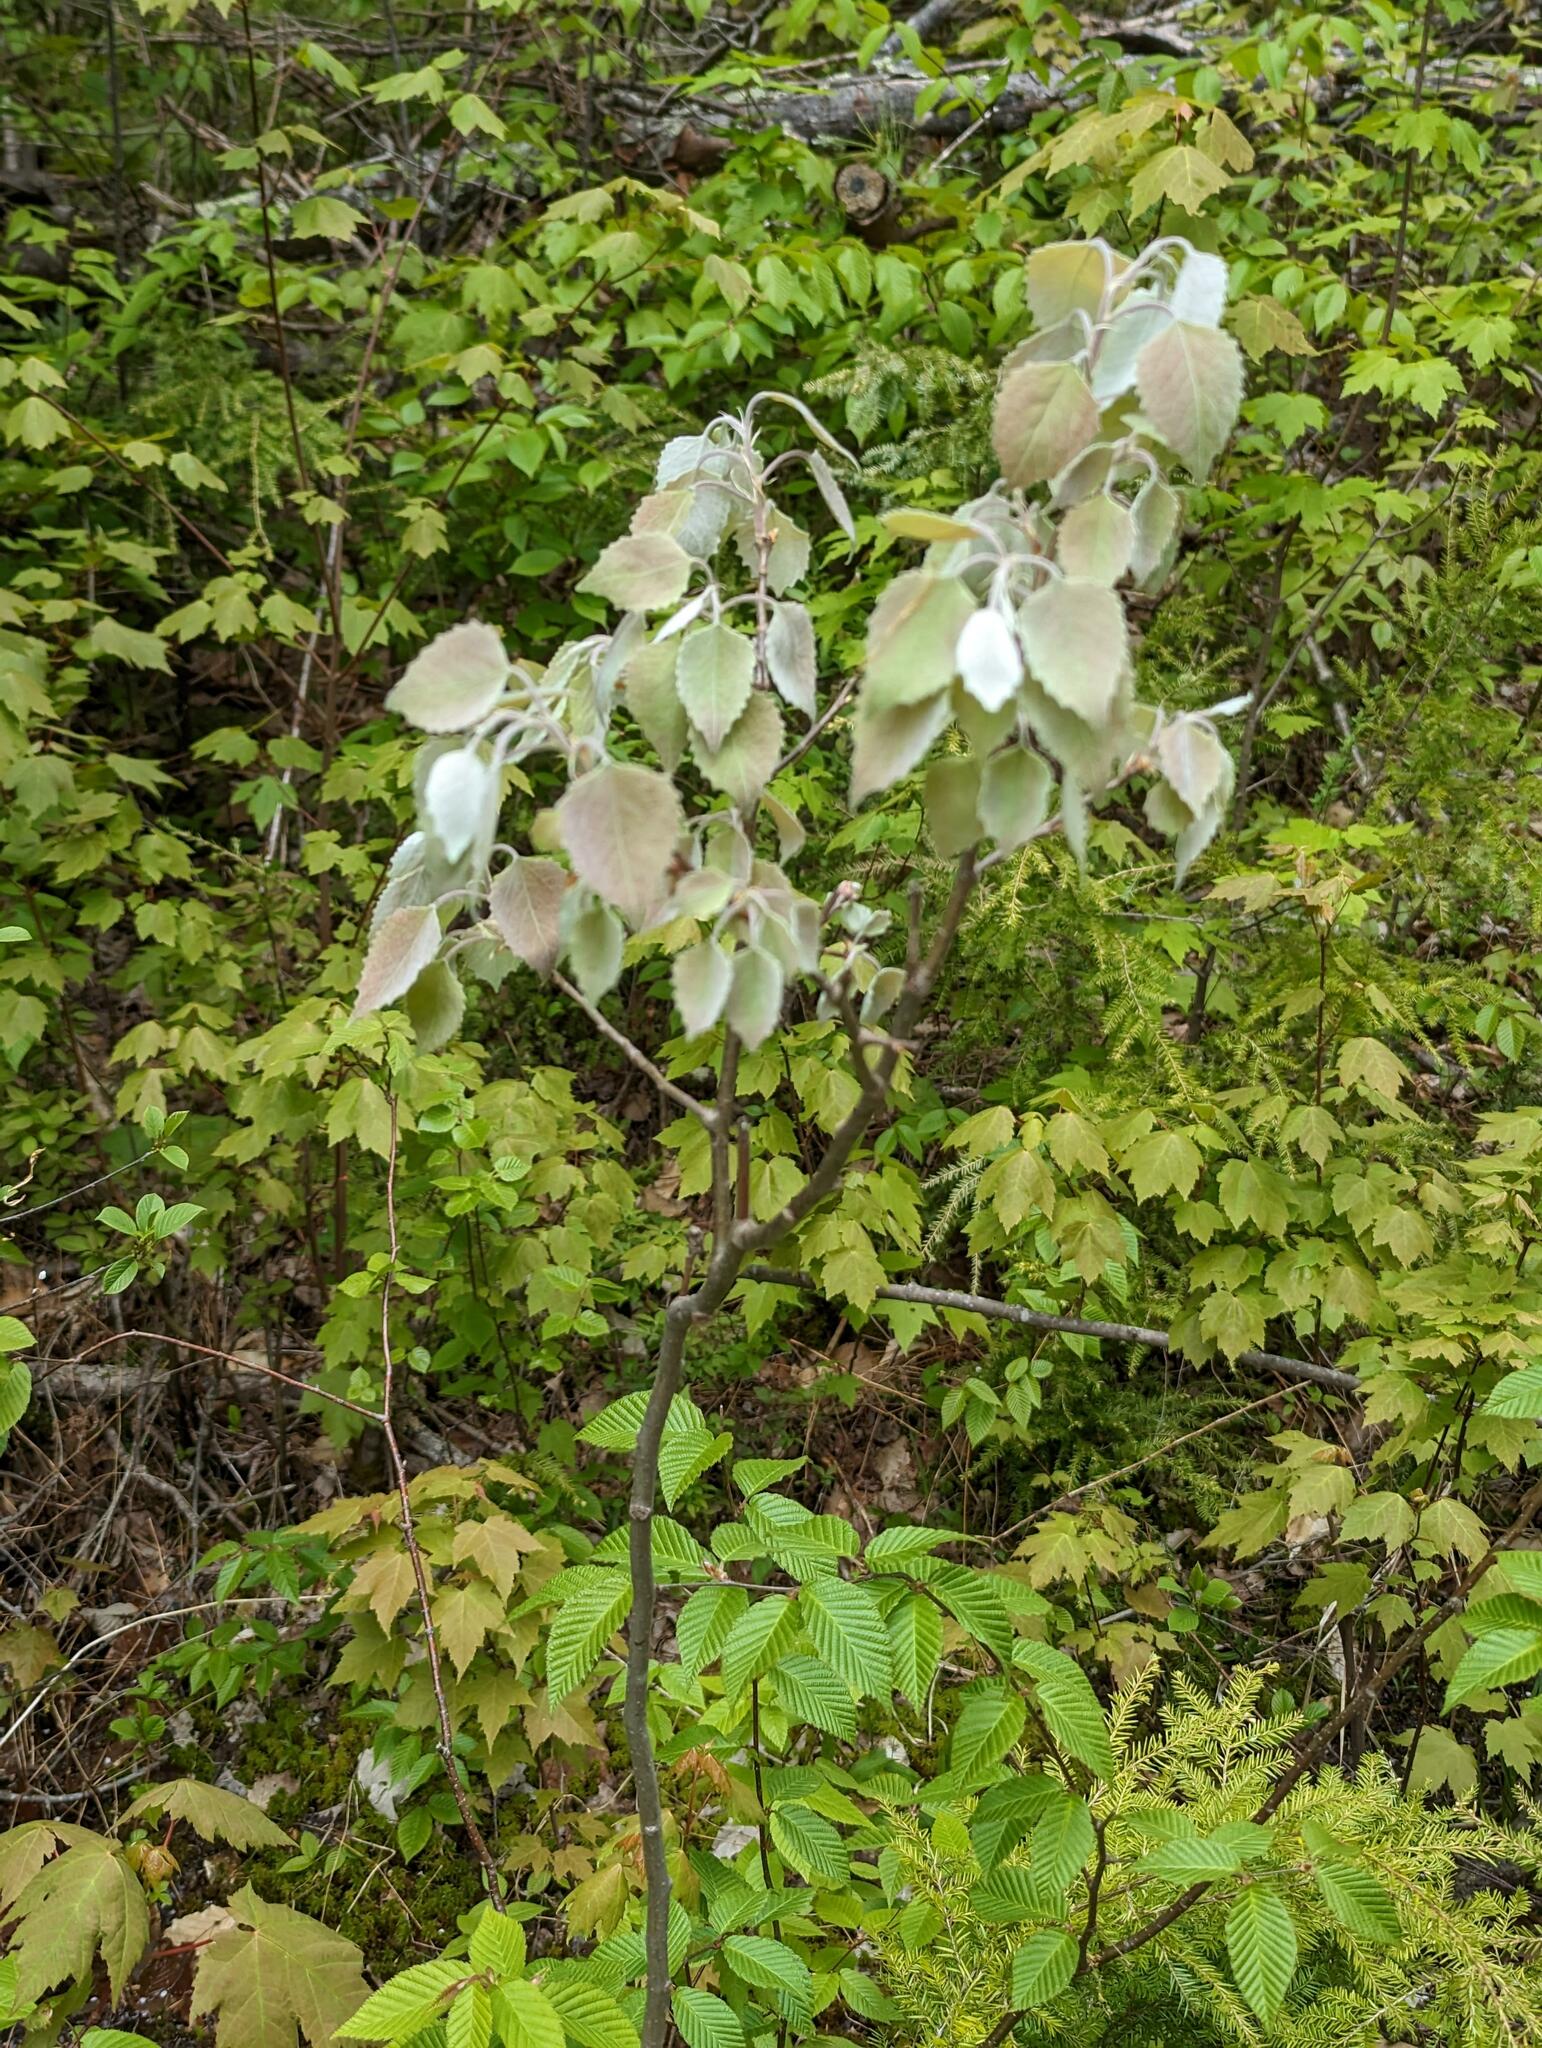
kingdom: Plantae
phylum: Tracheophyta
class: Magnoliopsida
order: Malpighiales
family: Salicaceae
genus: Populus
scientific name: Populus grandidentata
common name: Bigtooth aspen
